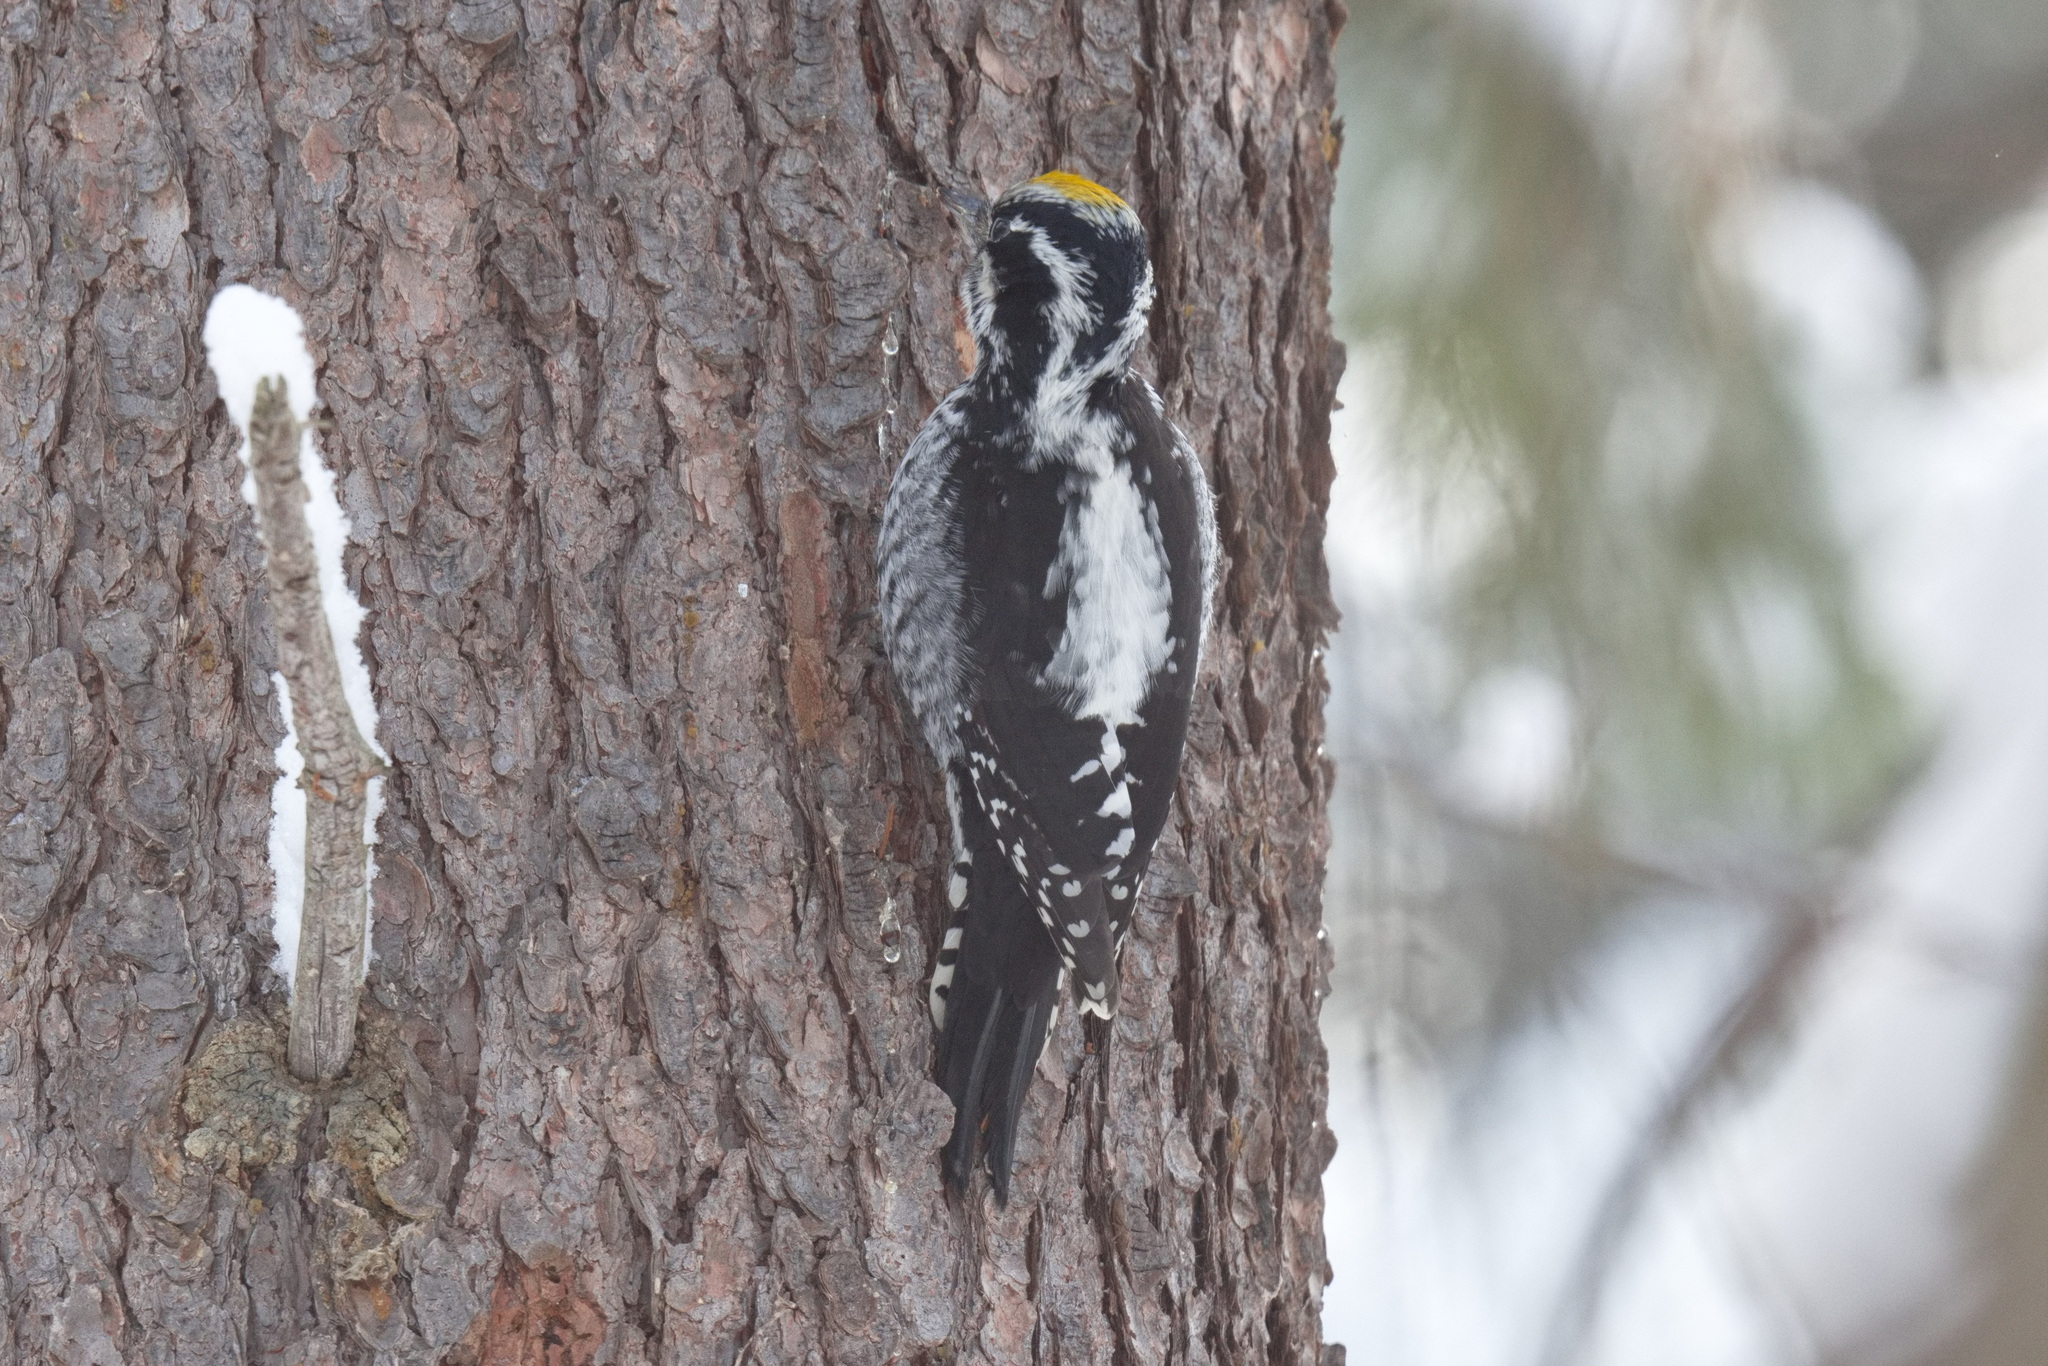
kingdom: Animalia
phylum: Chordata
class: Aves
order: Piciformes
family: Picidae
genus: Picoides
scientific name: Picoides tridactylus
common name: Eurasian three-toed woodpecker
